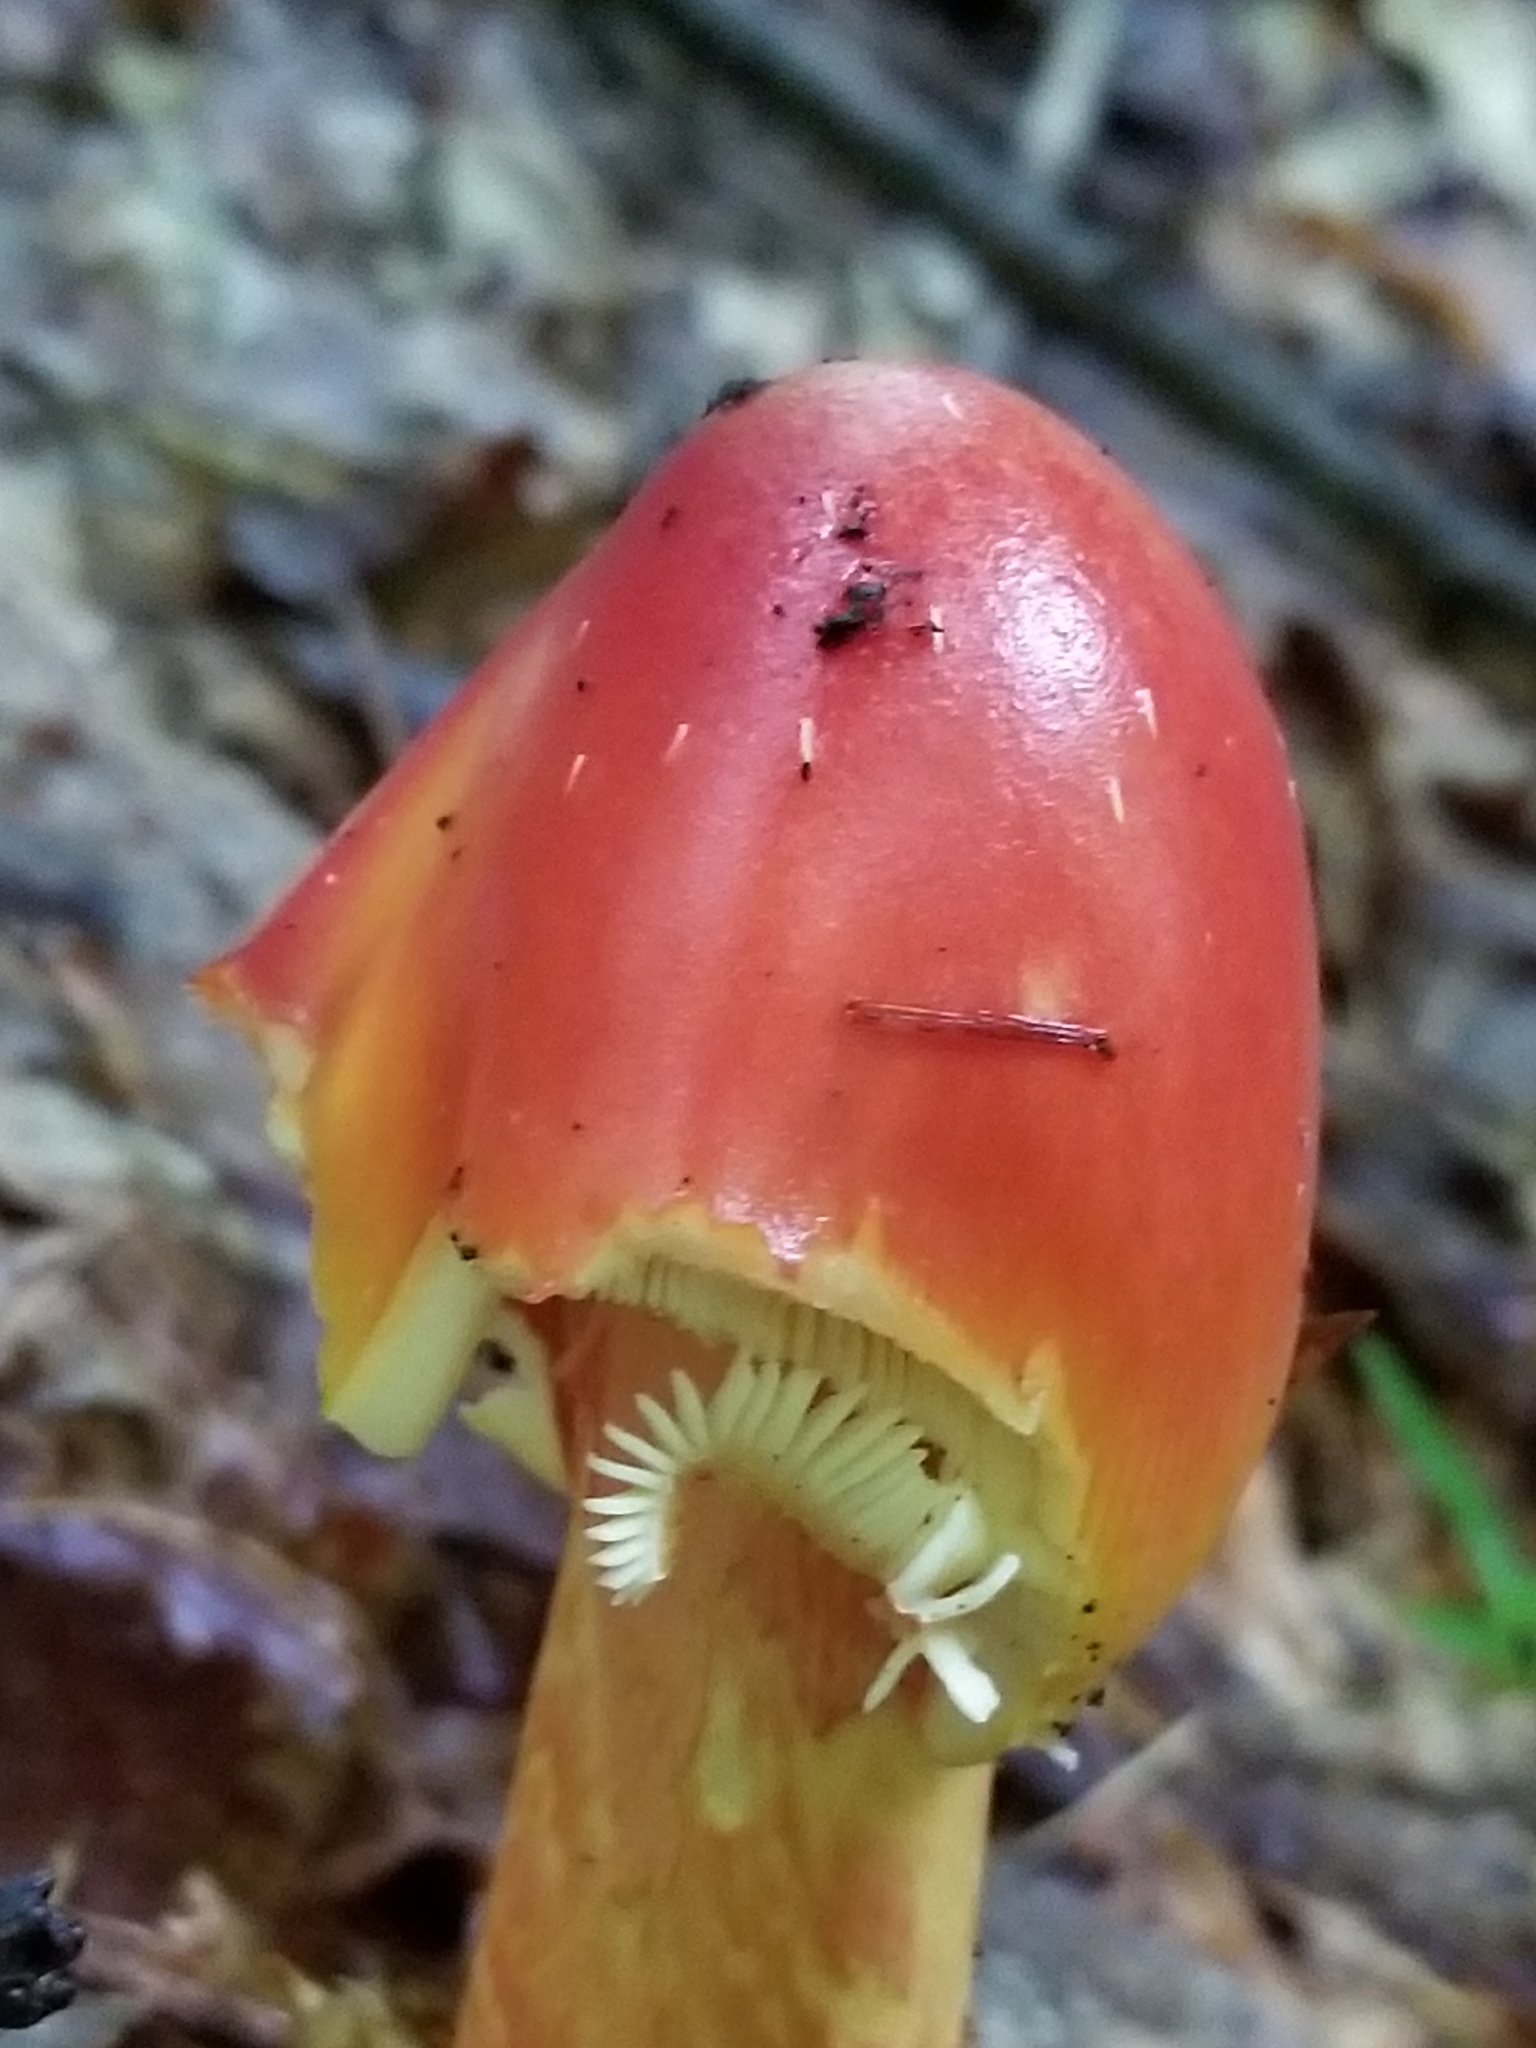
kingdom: Fungi
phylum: Basidiomycota
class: Agaricomycetes
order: Agaricales
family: Amanitaceae
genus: Amanita
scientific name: Amanita jacksonii
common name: Jackson's slender caesar
